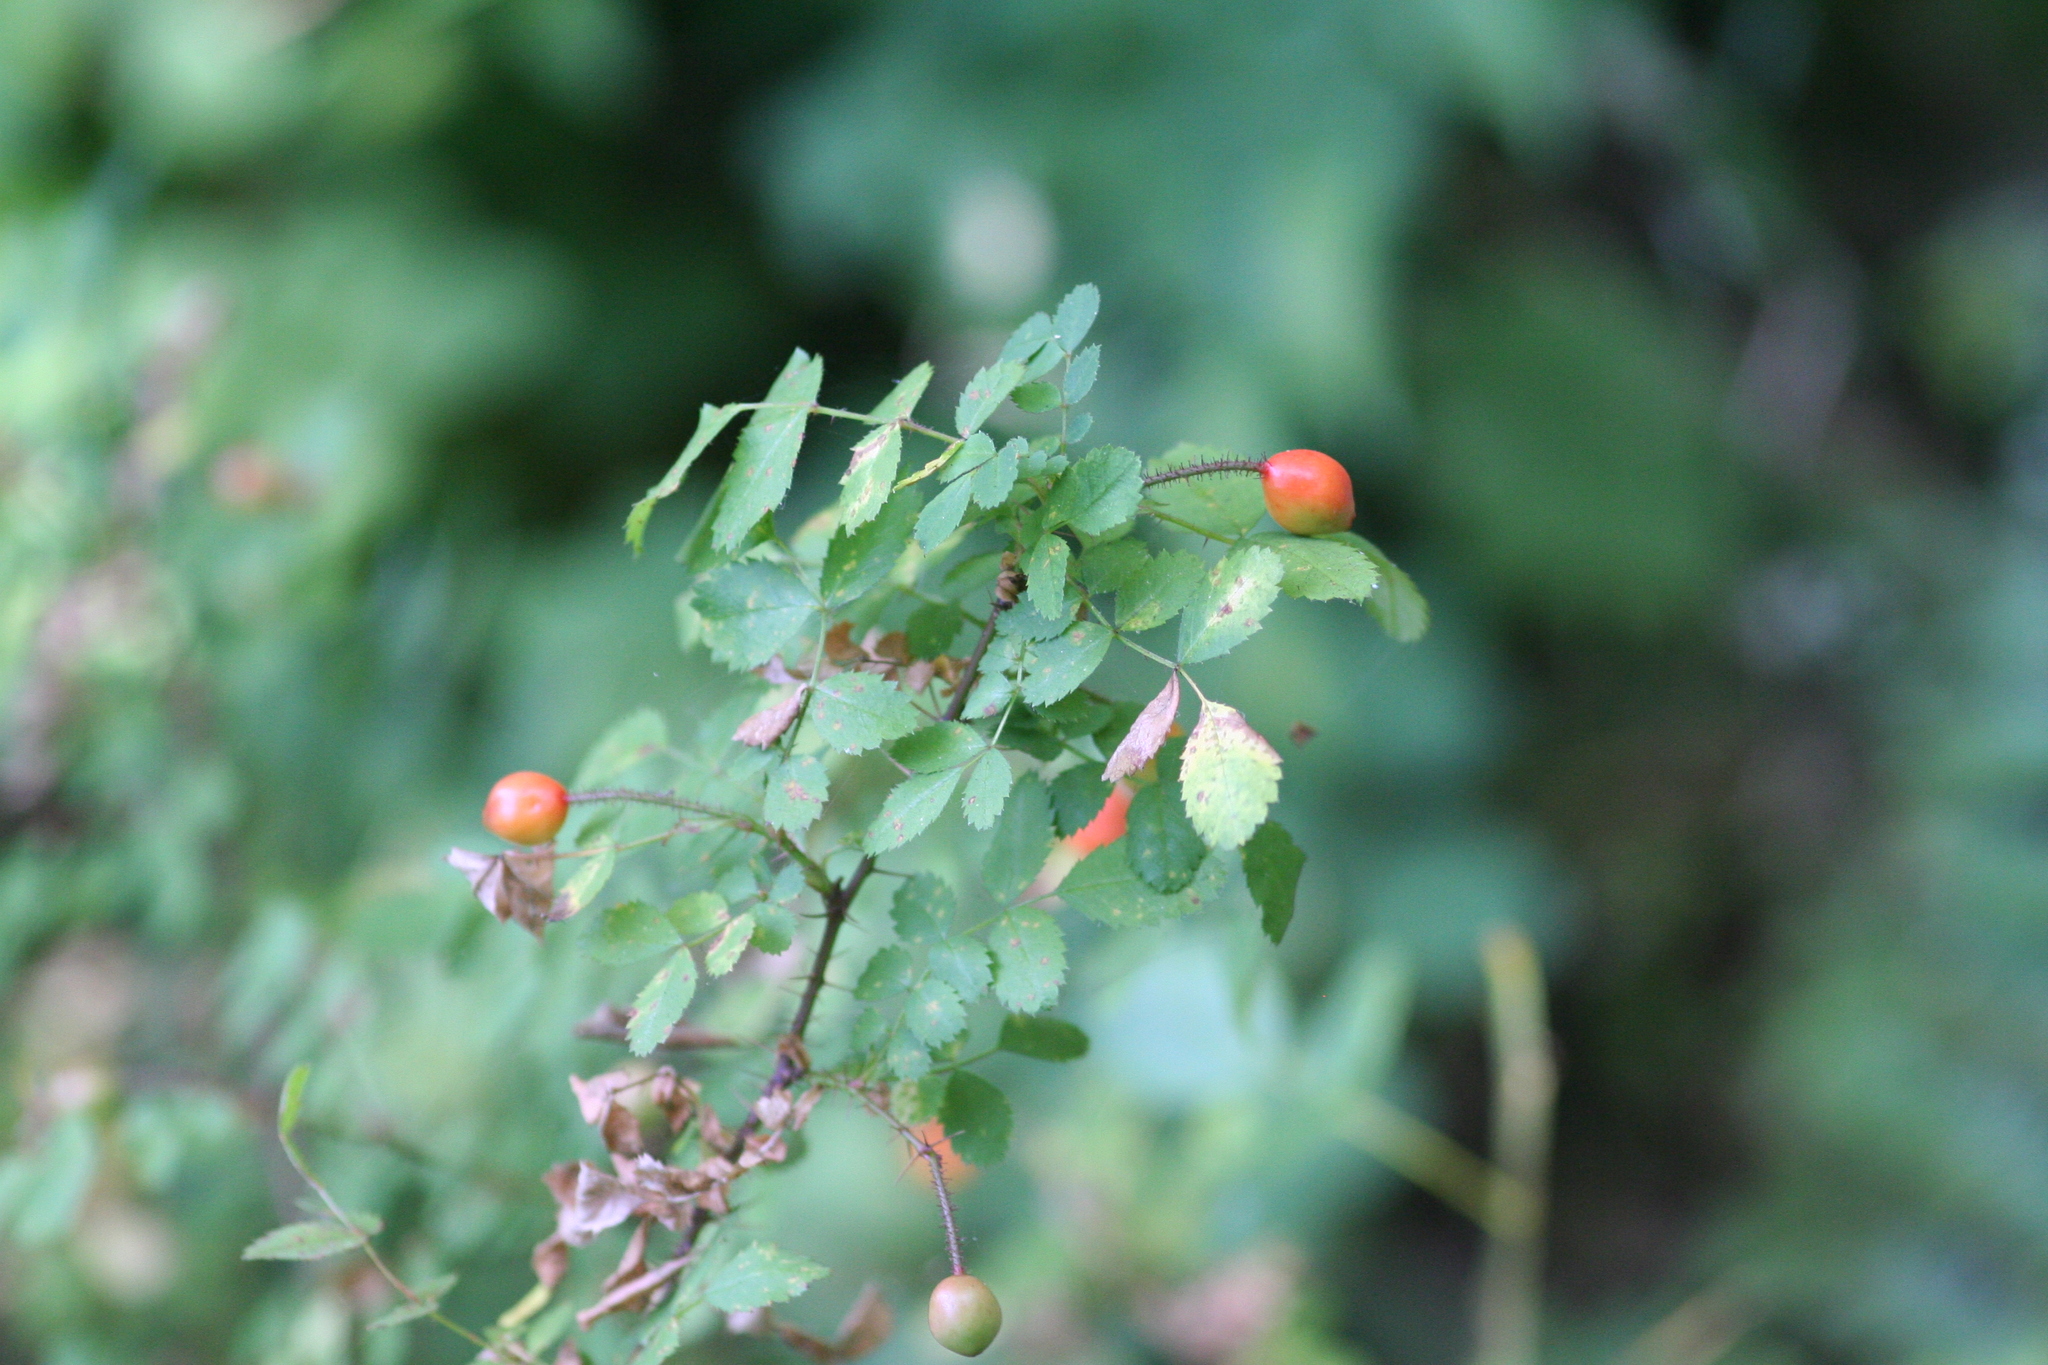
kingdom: Plantae
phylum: Tracheophyta
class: Magnoliopsida
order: Rosales
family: Rosaceae
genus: Rosa
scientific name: Rosa gymnocarpa
